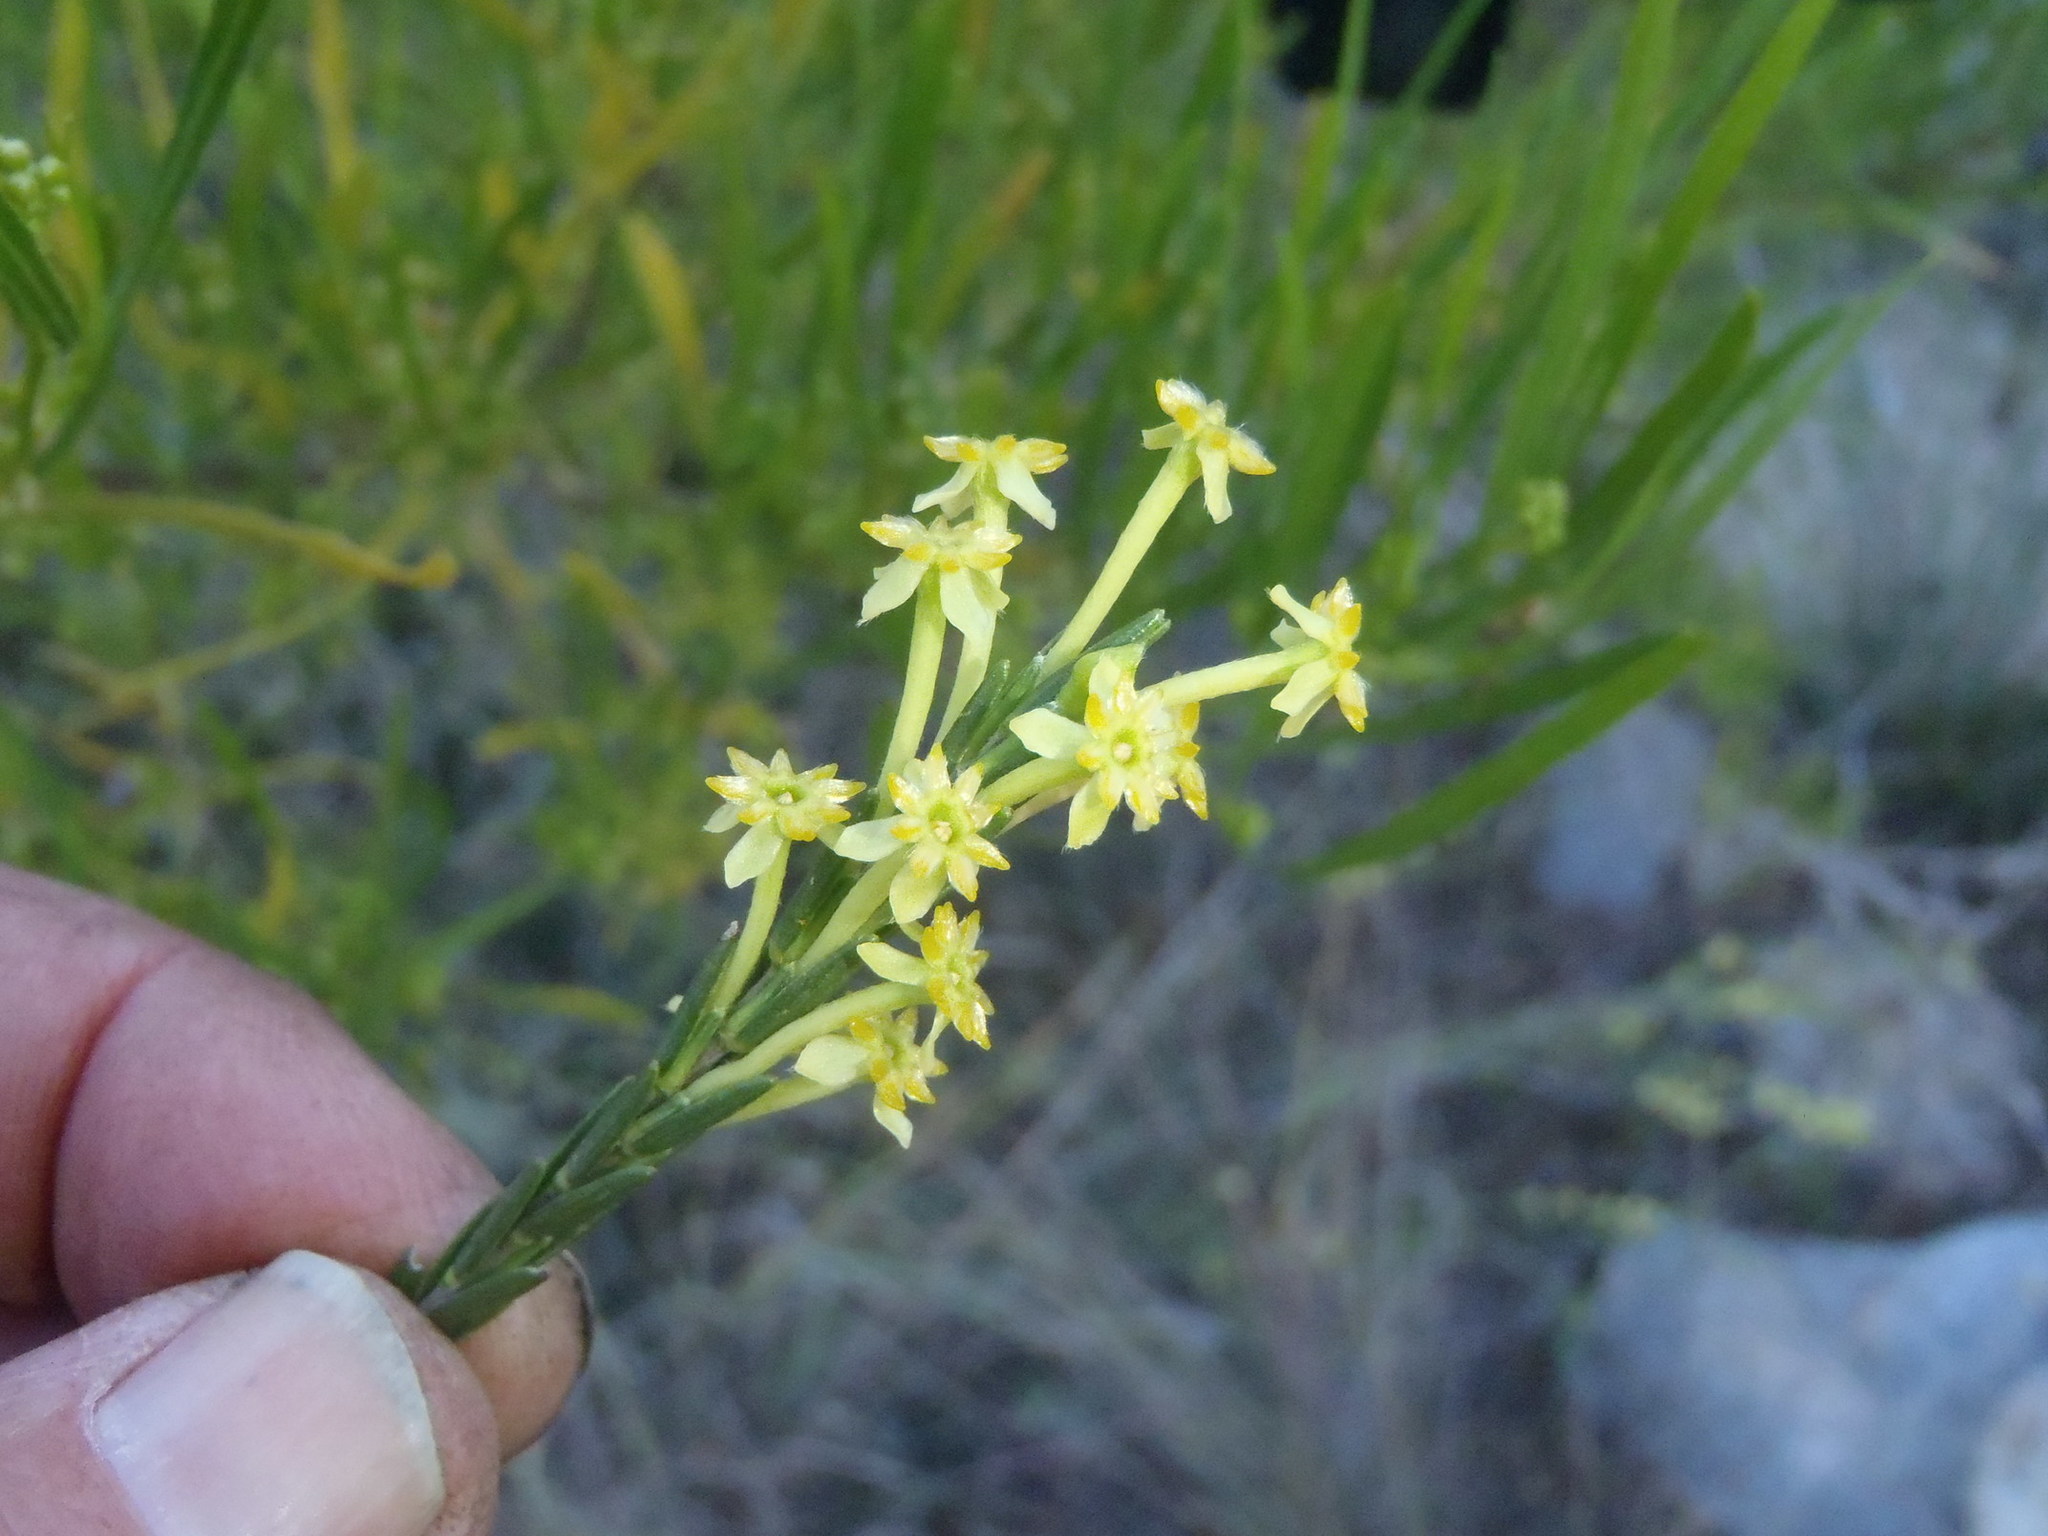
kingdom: Plantae
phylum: Tracheophyta
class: Magnoliopsida
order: Malvales
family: Thymelaeaceae
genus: Struthiola
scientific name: Struthiola eckloniana
